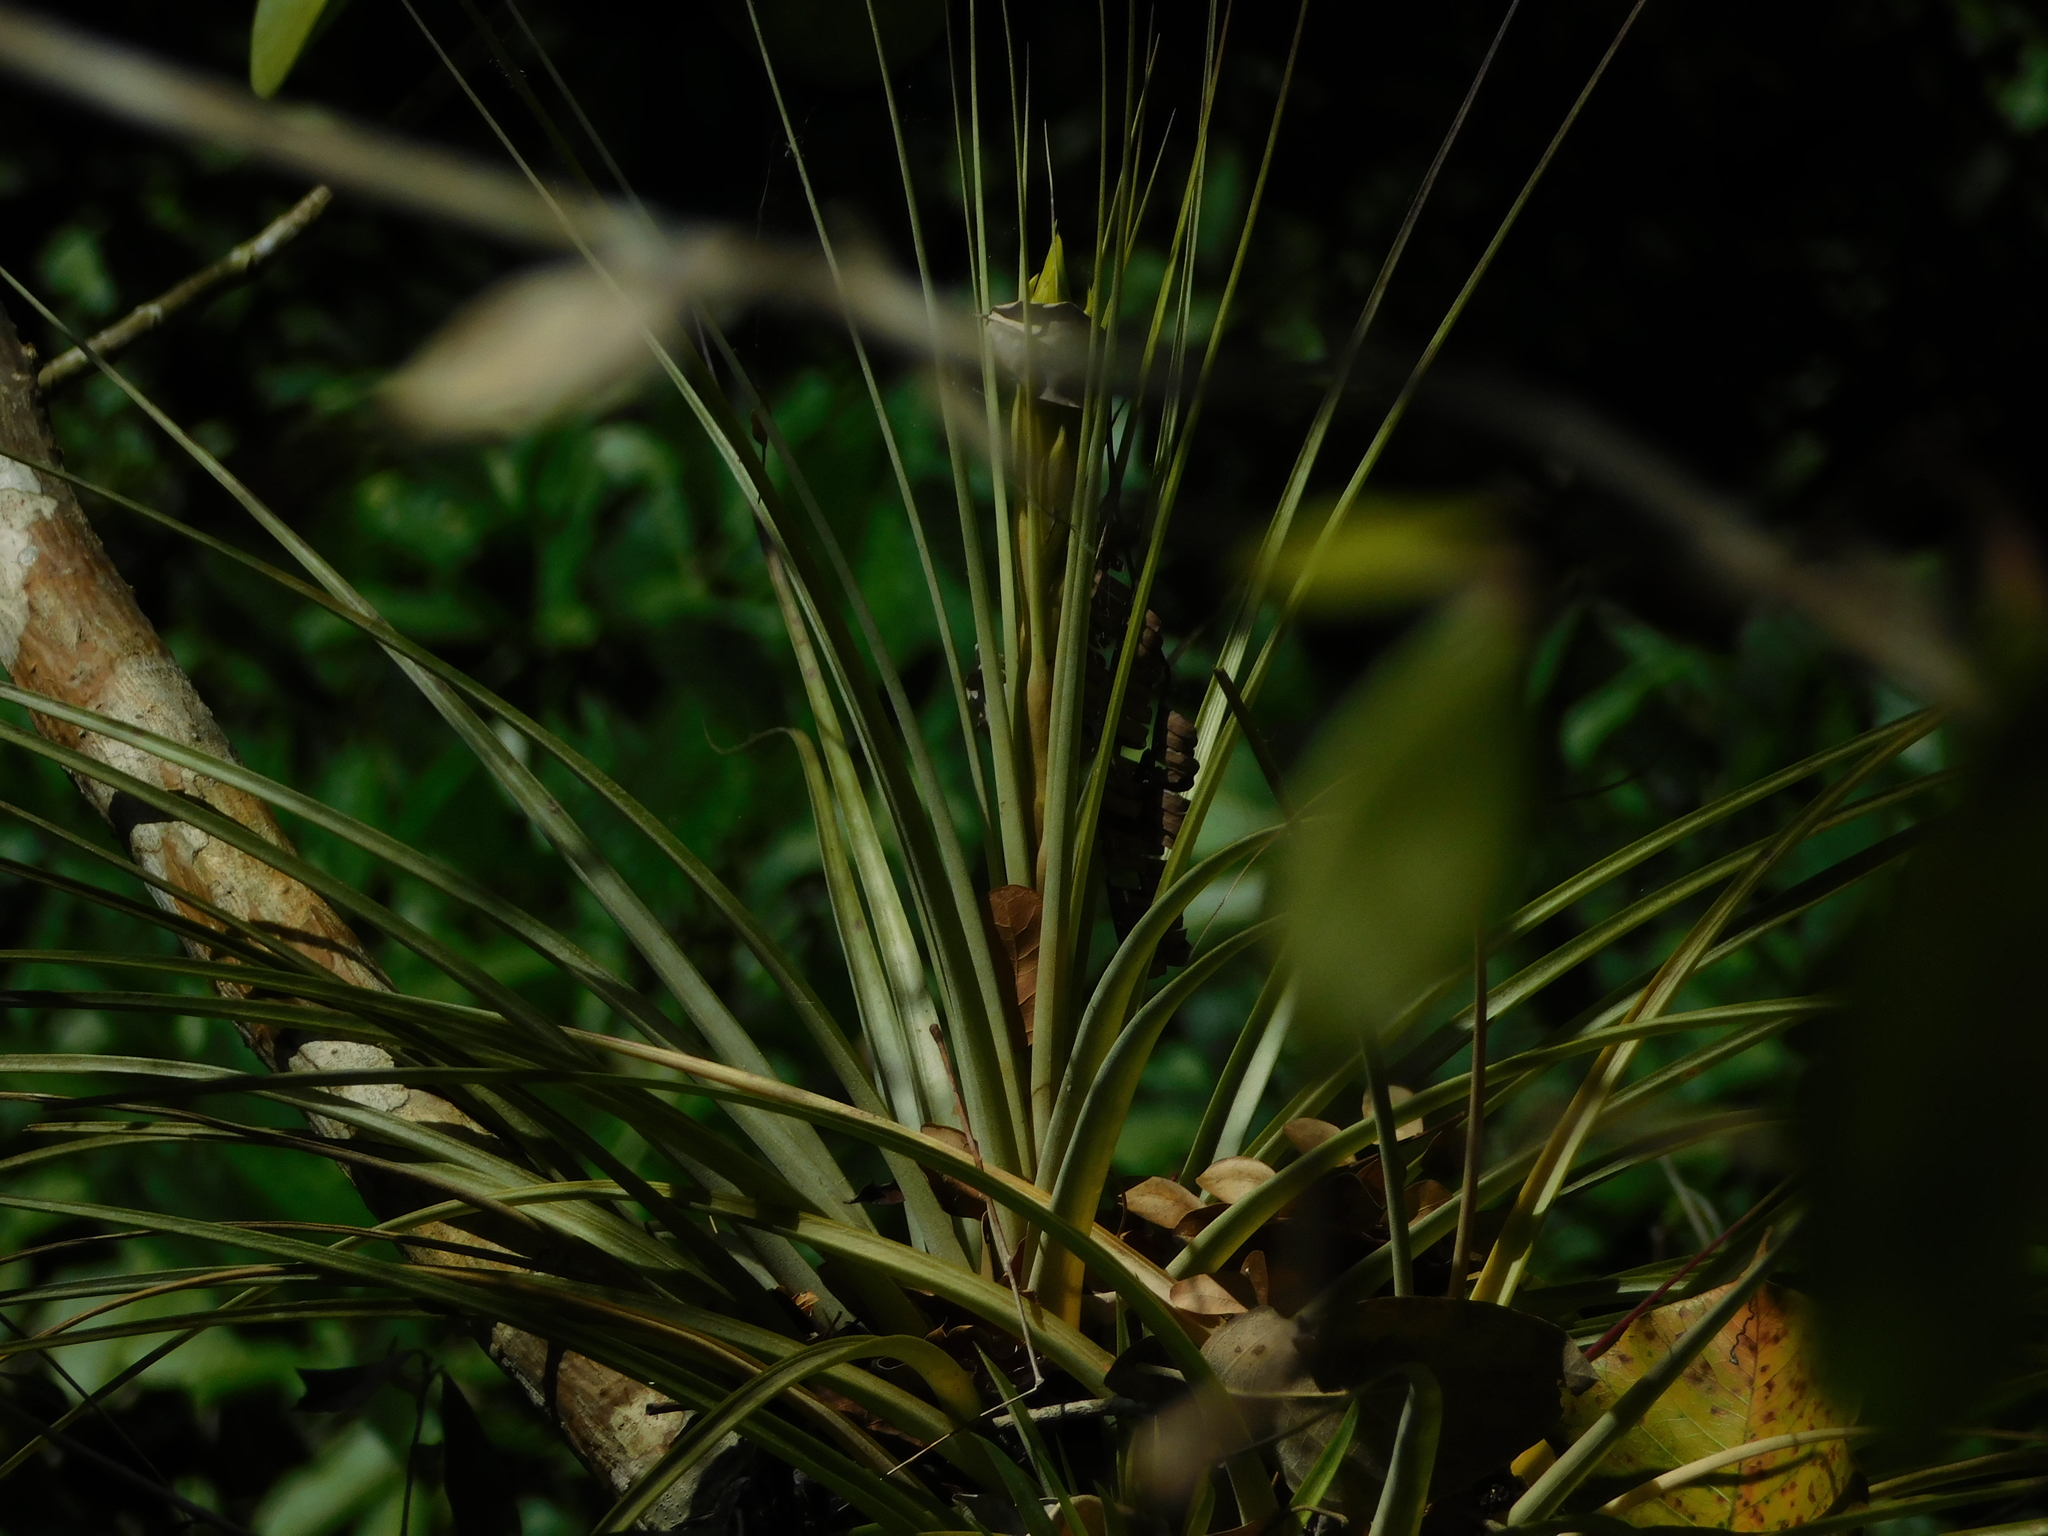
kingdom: Plantae
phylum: Tracheophyta
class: Liliopsida
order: Poales
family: Bromeliaceae
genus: Tillandsia
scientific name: Tillandsia fasciculata
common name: Giant airplant
